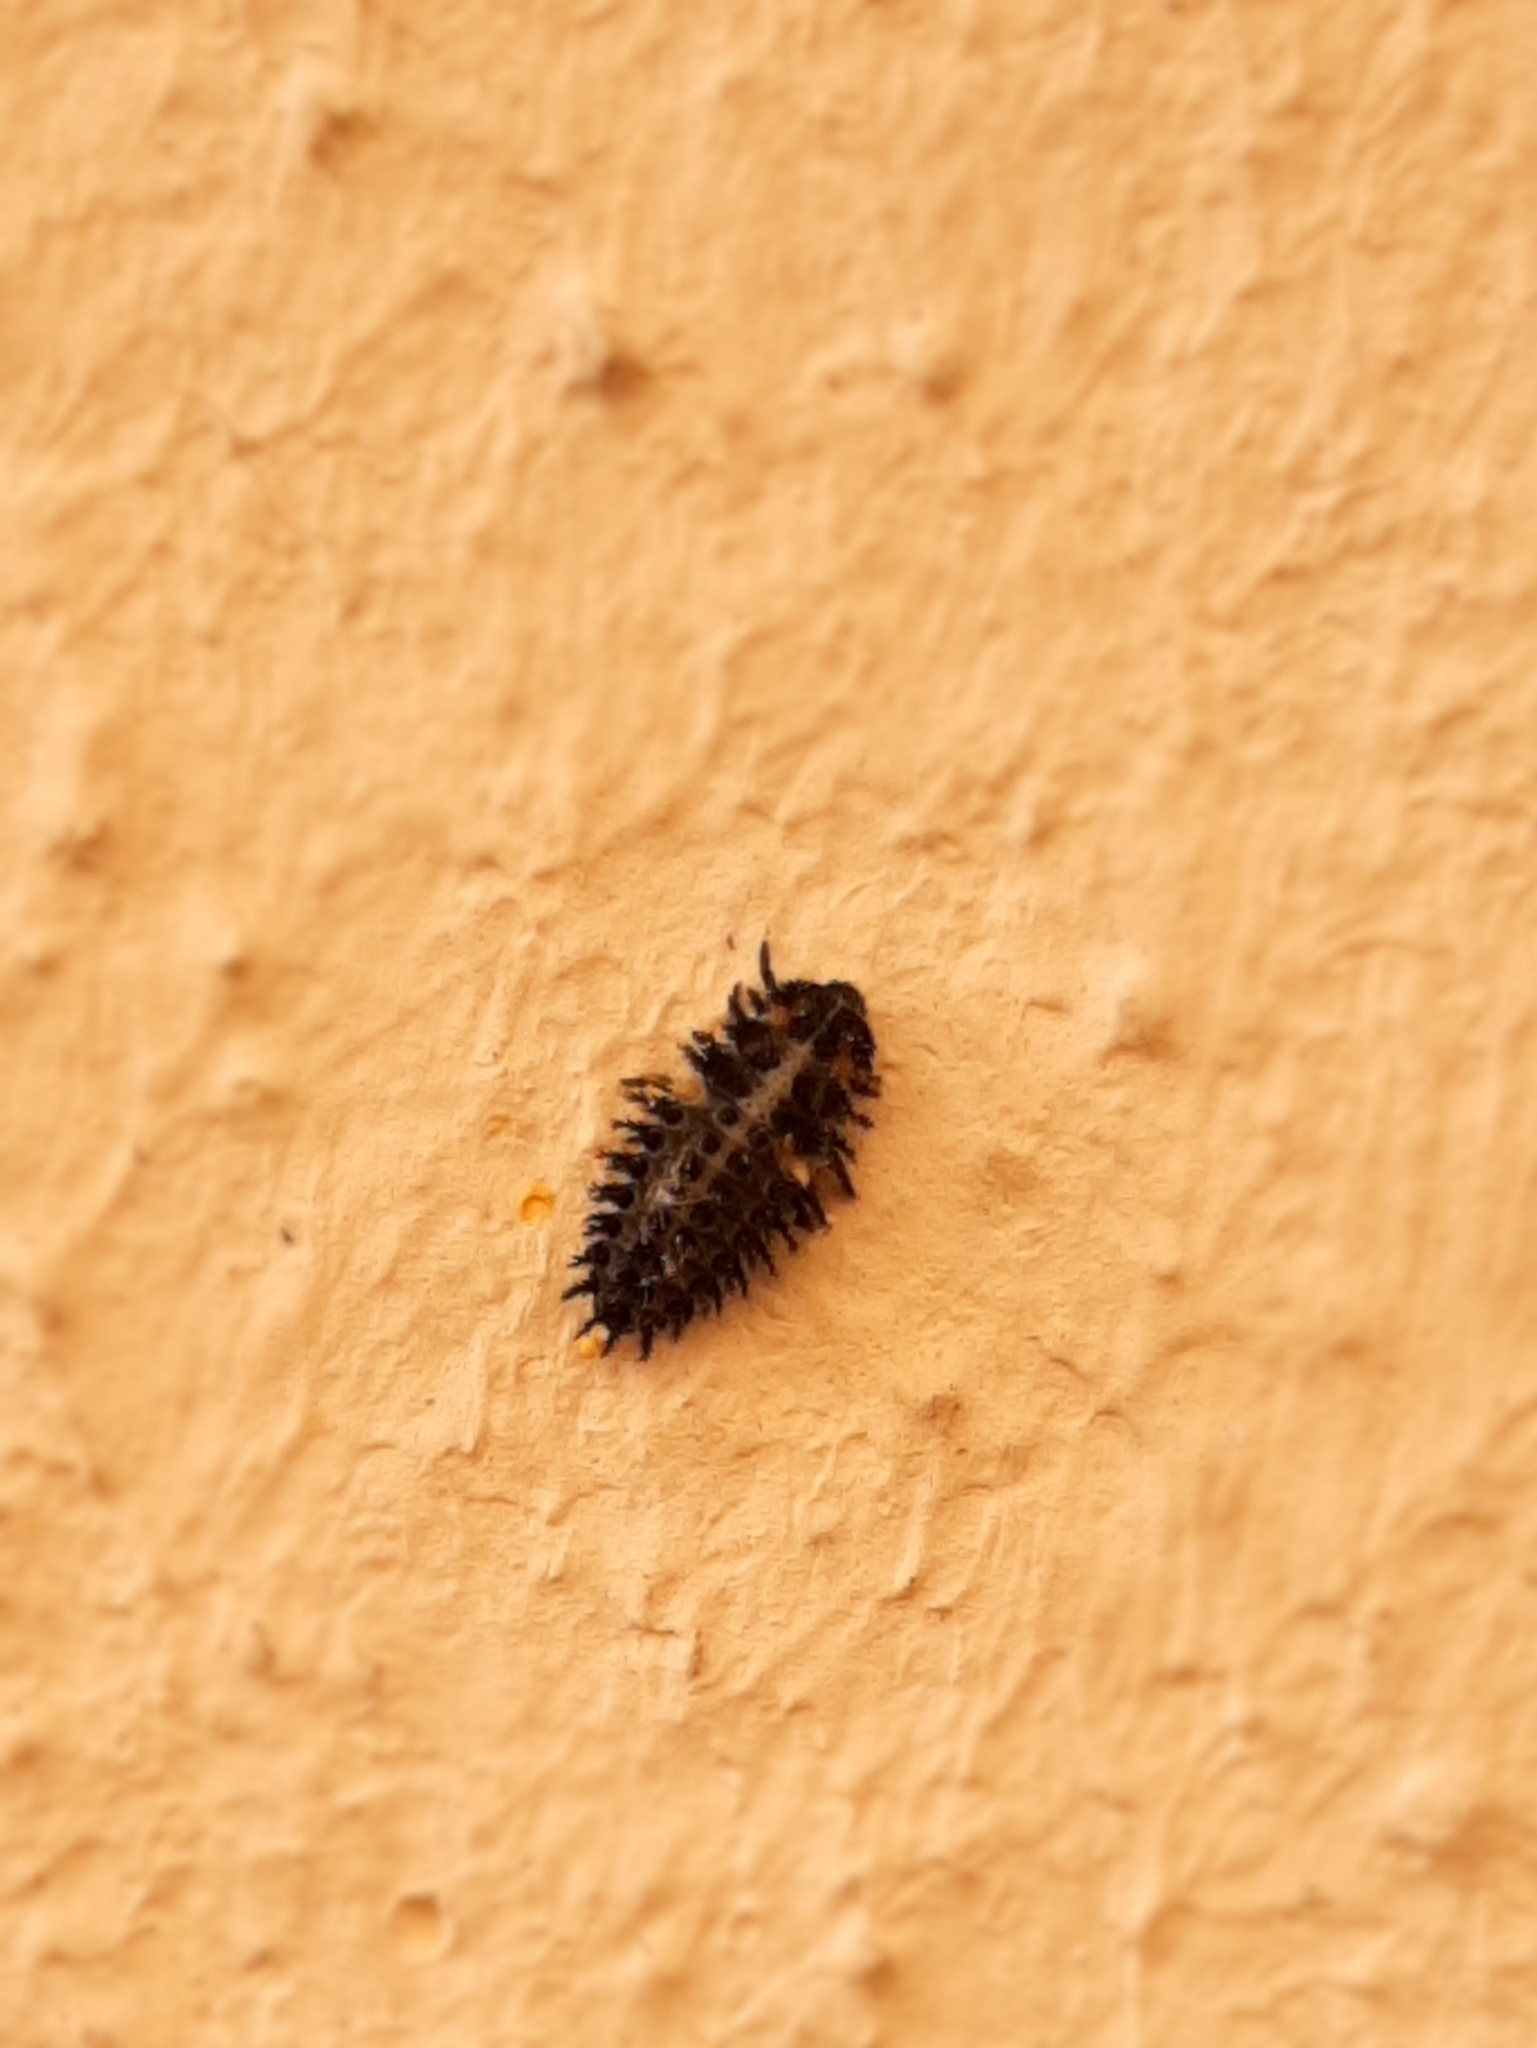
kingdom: Animalia
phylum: Arthropoda
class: Insecta
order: Coleoptera
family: Coccinellidae
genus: Brumus
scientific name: Brumus quadripustulatus
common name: Ladybird beetle
